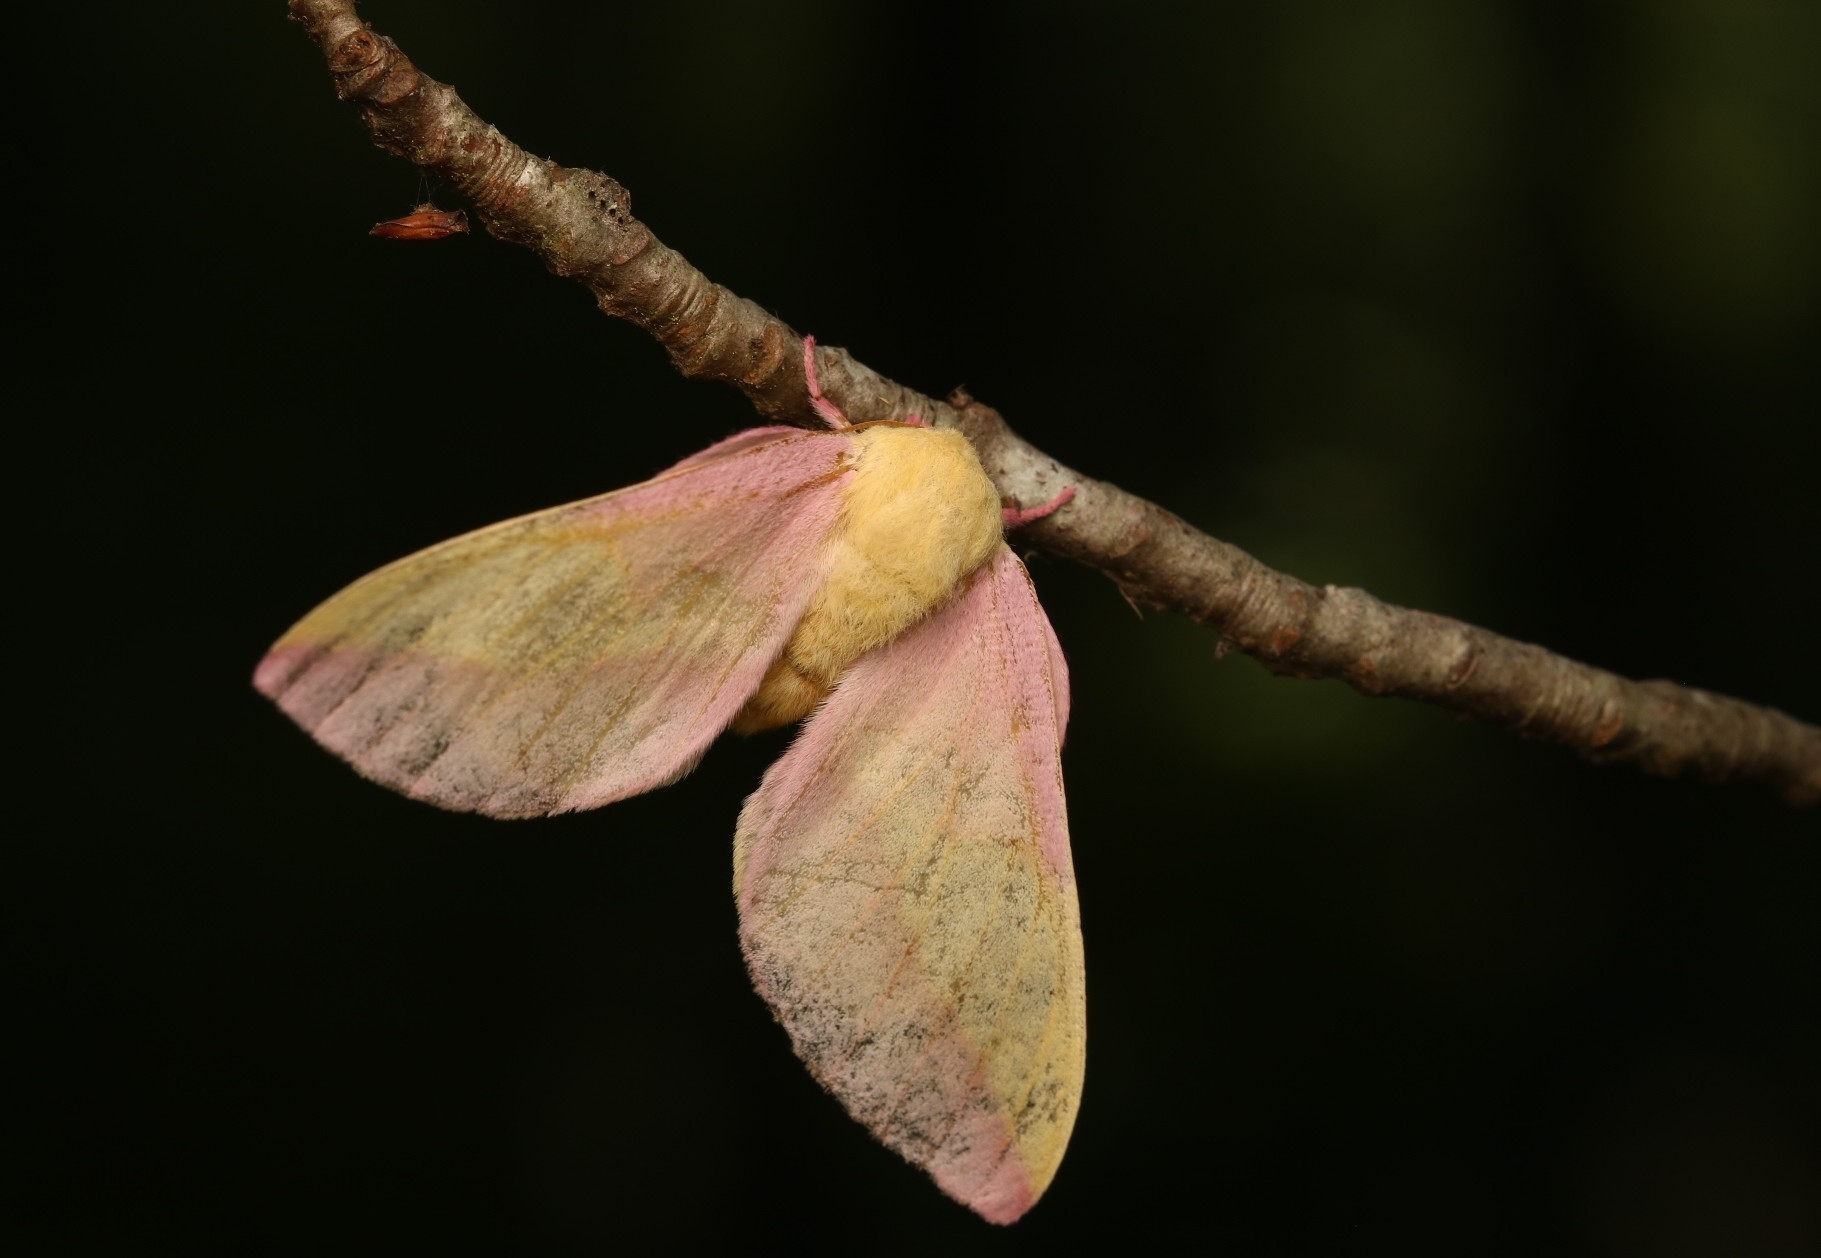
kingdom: Animalia
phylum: Arthropoda
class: Insecta
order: Lepidoptera
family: Saturniidae
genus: Dryocampa
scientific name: Dryocampa rubicunda
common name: Rosy maple moth
